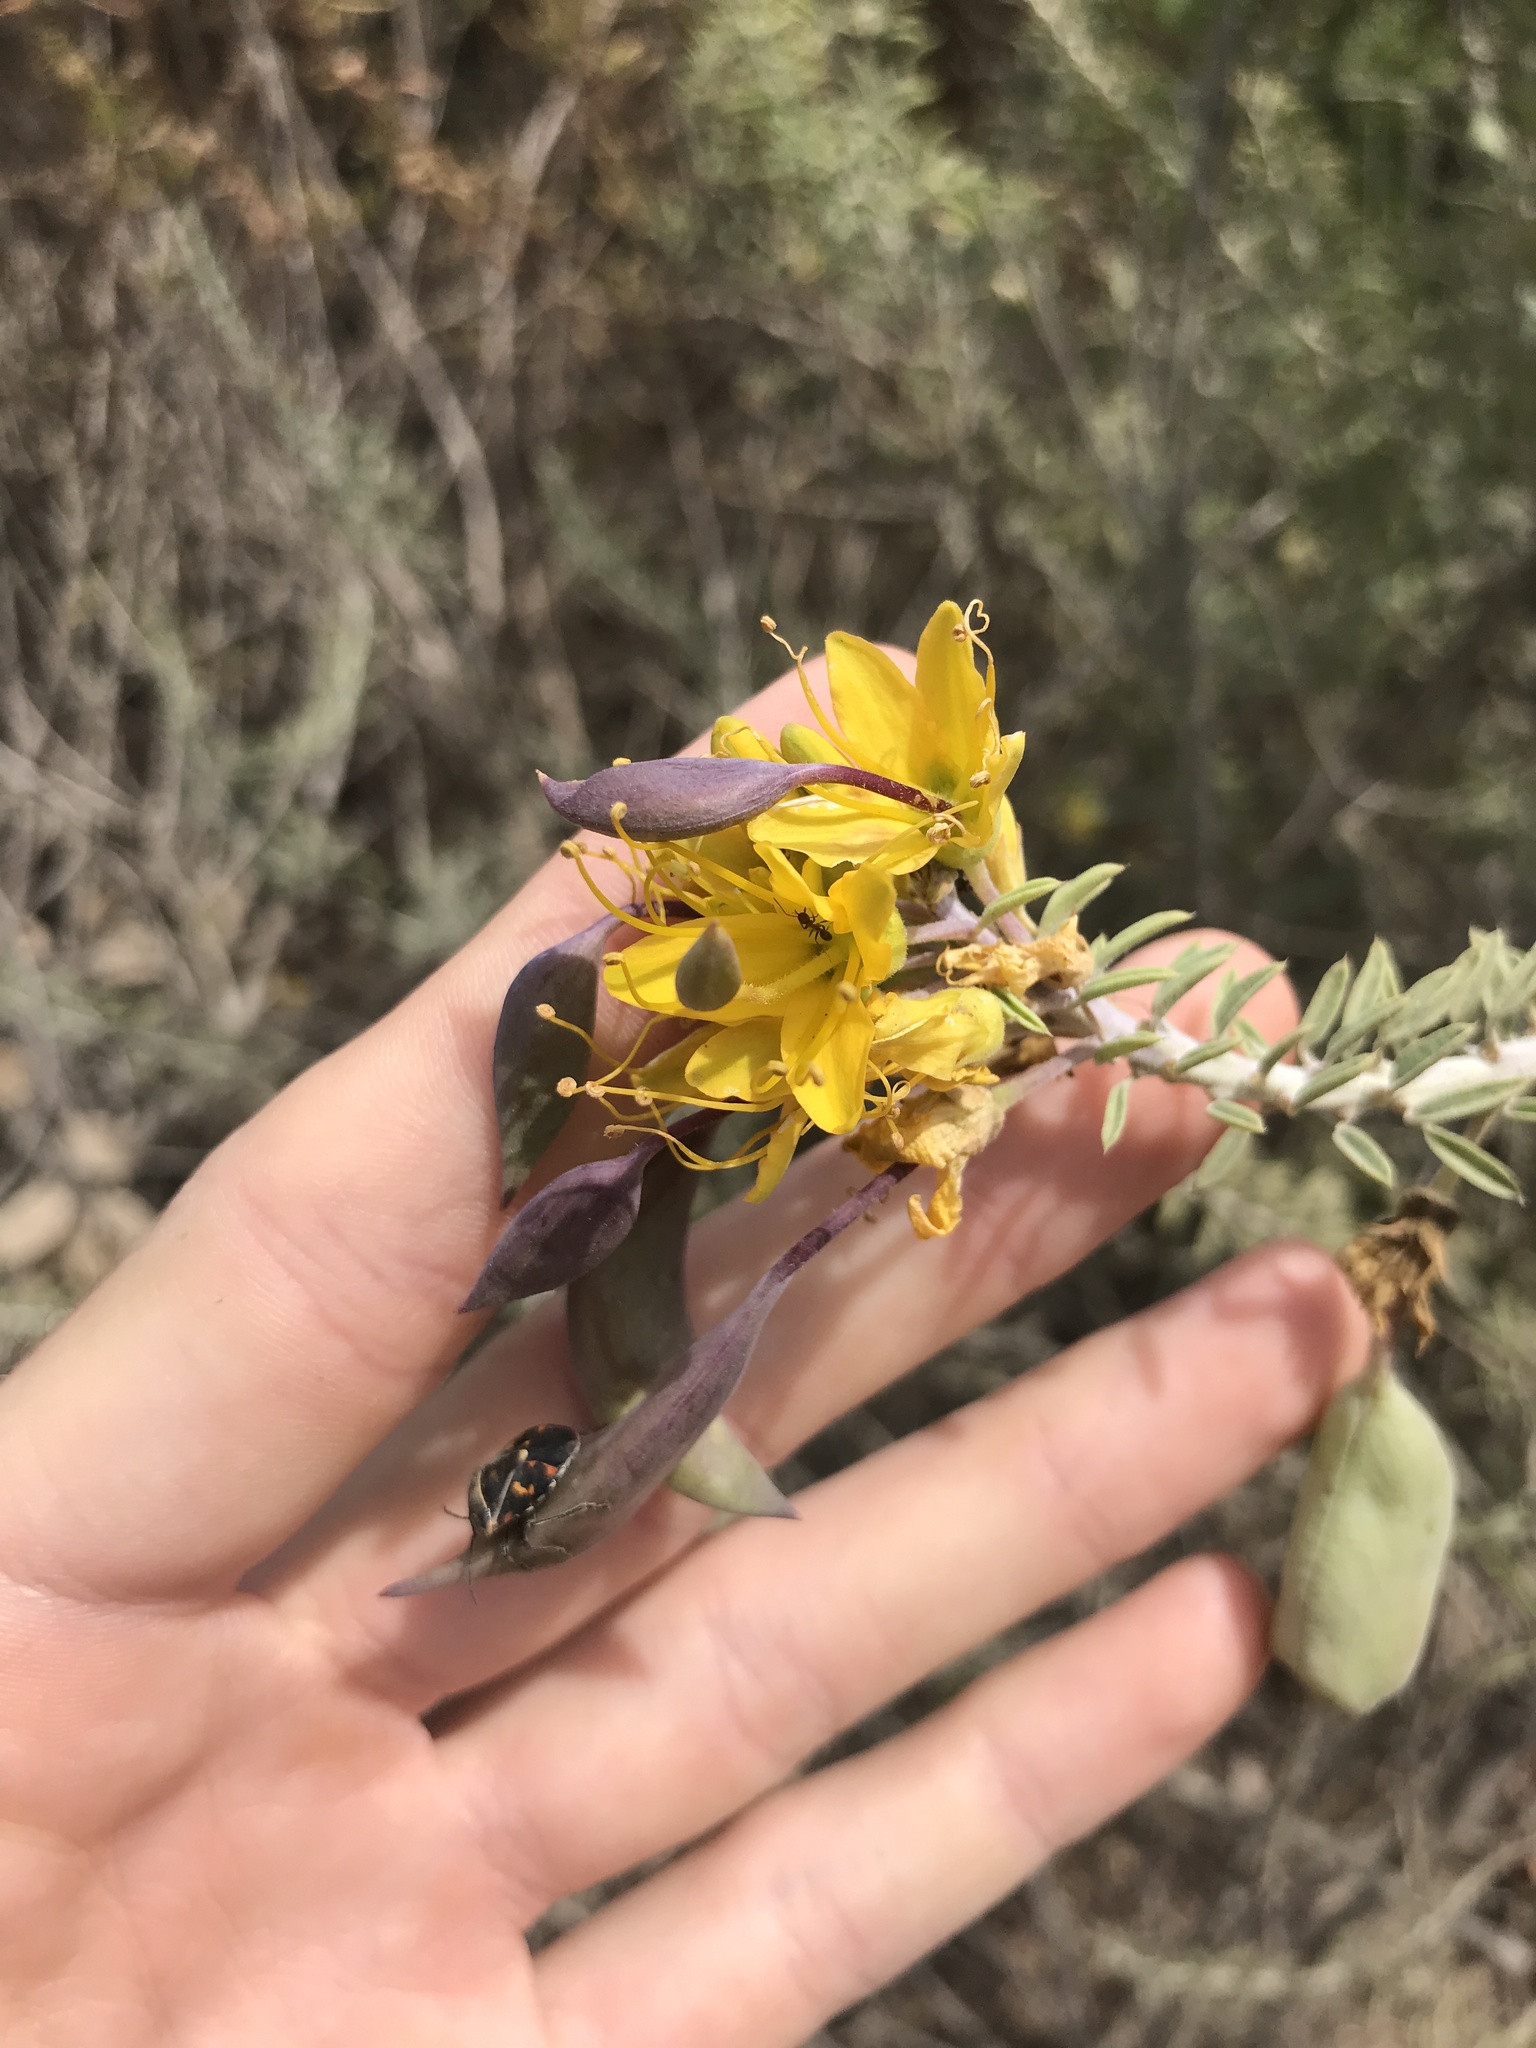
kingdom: Plantae
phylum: Tracheophyta
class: Magnoliopsida
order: Brassicales
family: Cleomaceae
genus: Cleomella
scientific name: Cleomella arborea
